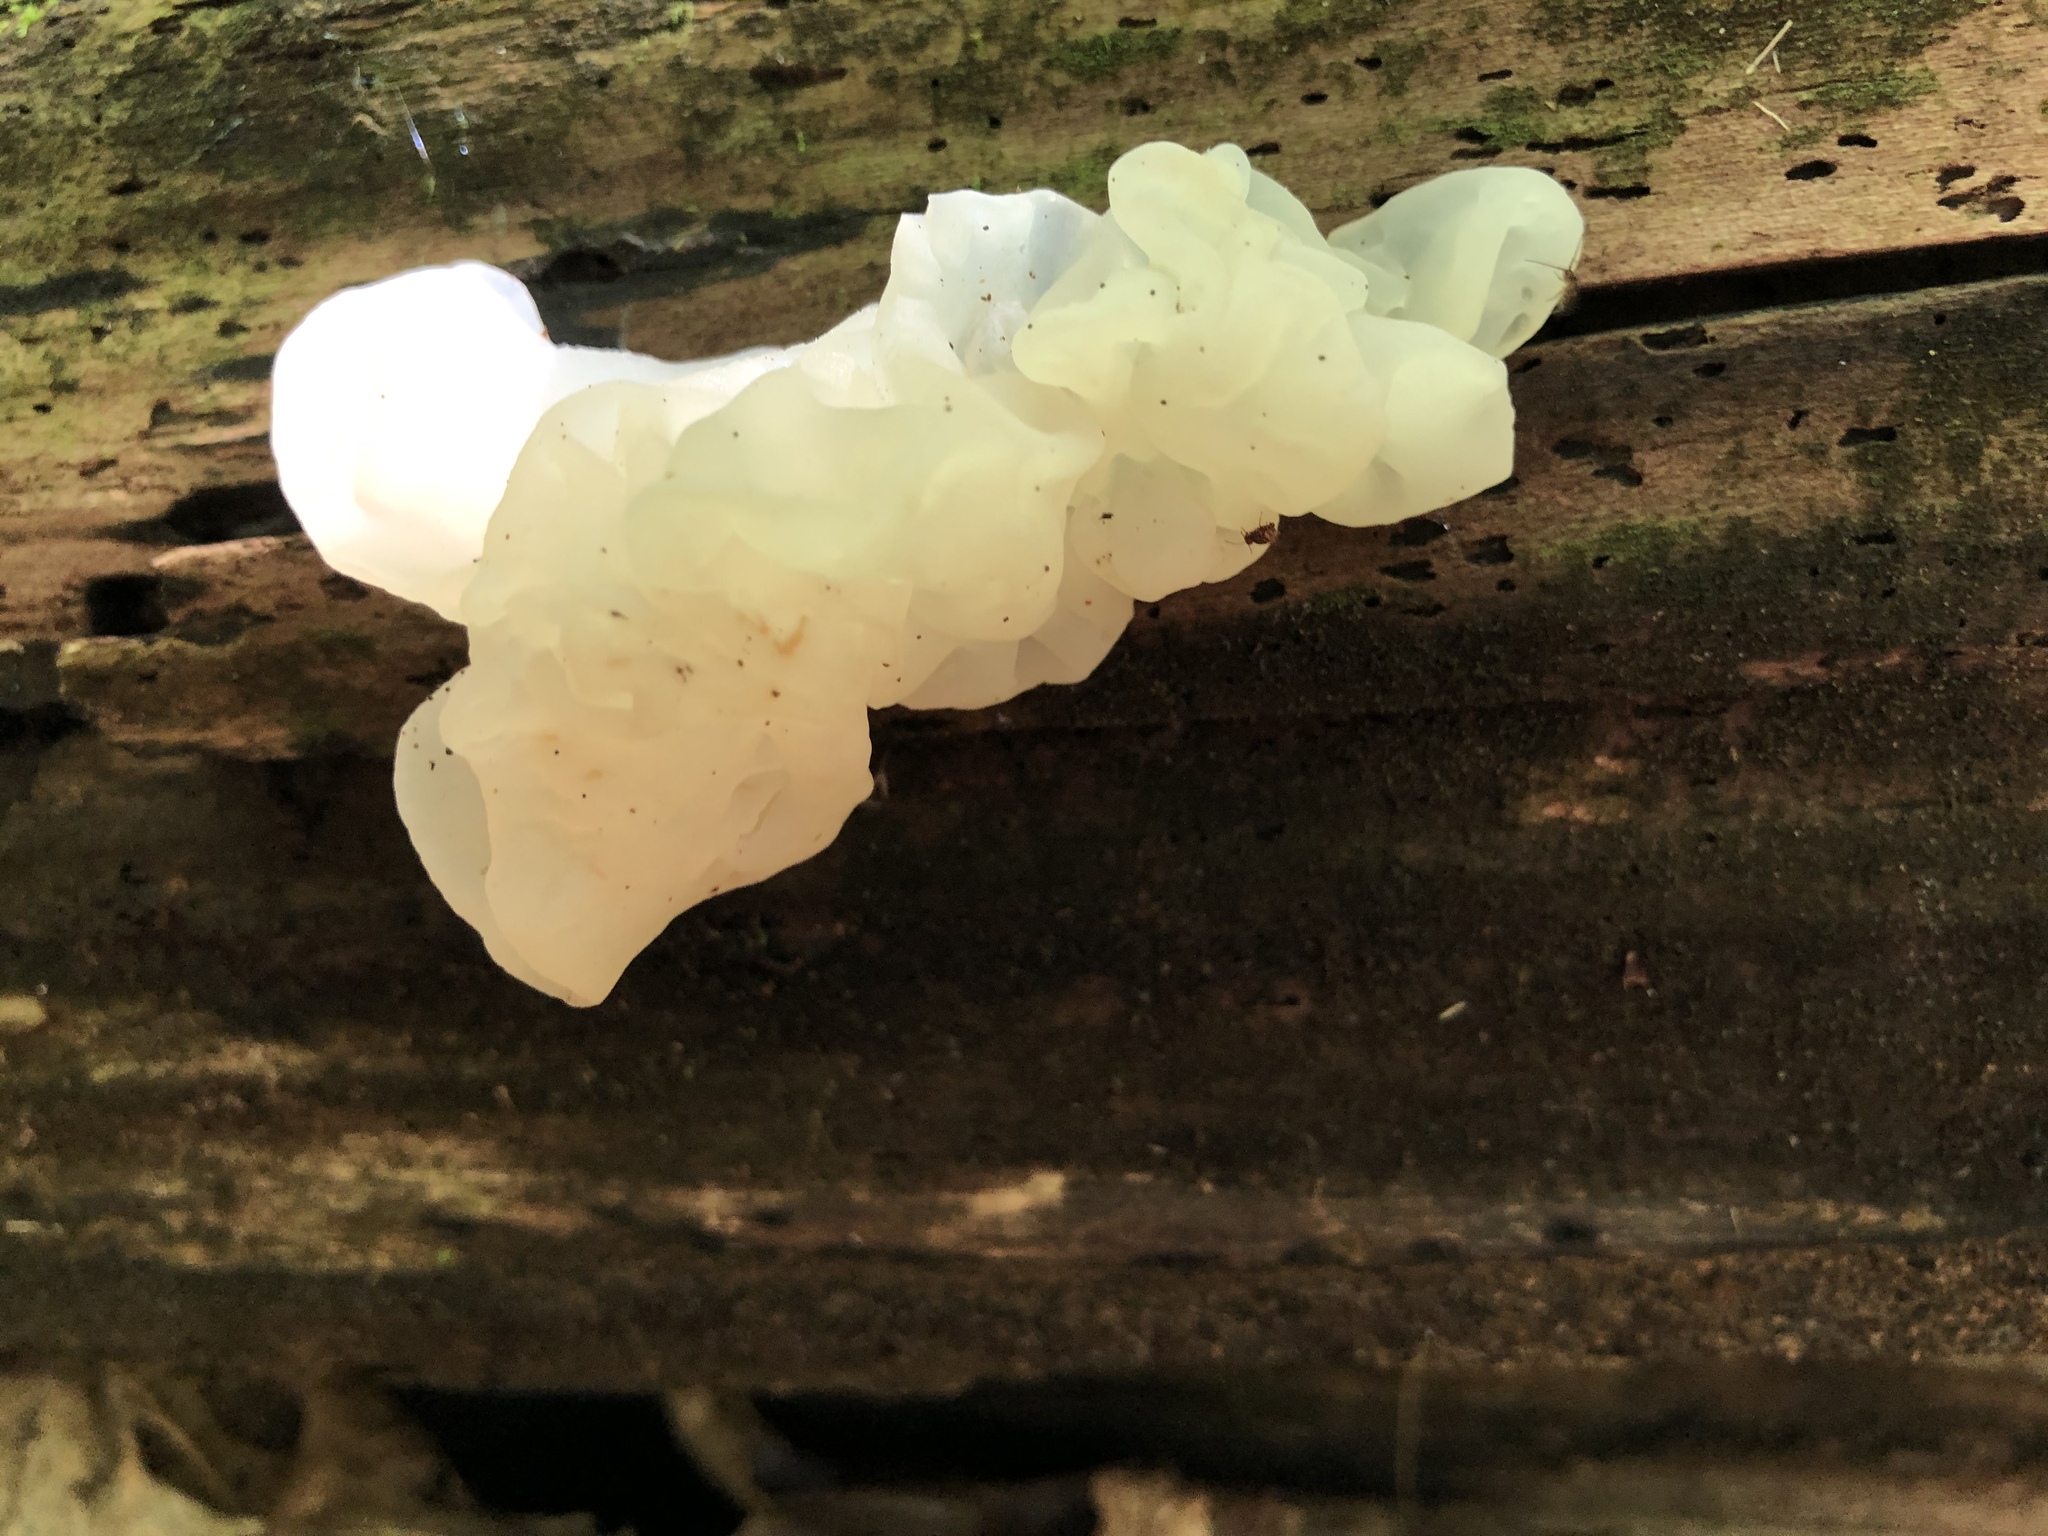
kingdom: Fungi
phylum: Basidiomycota
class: Agaricomycetes
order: Auriculariales
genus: Ductifera
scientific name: Ductifera pululahuana
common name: White jelly fungus
